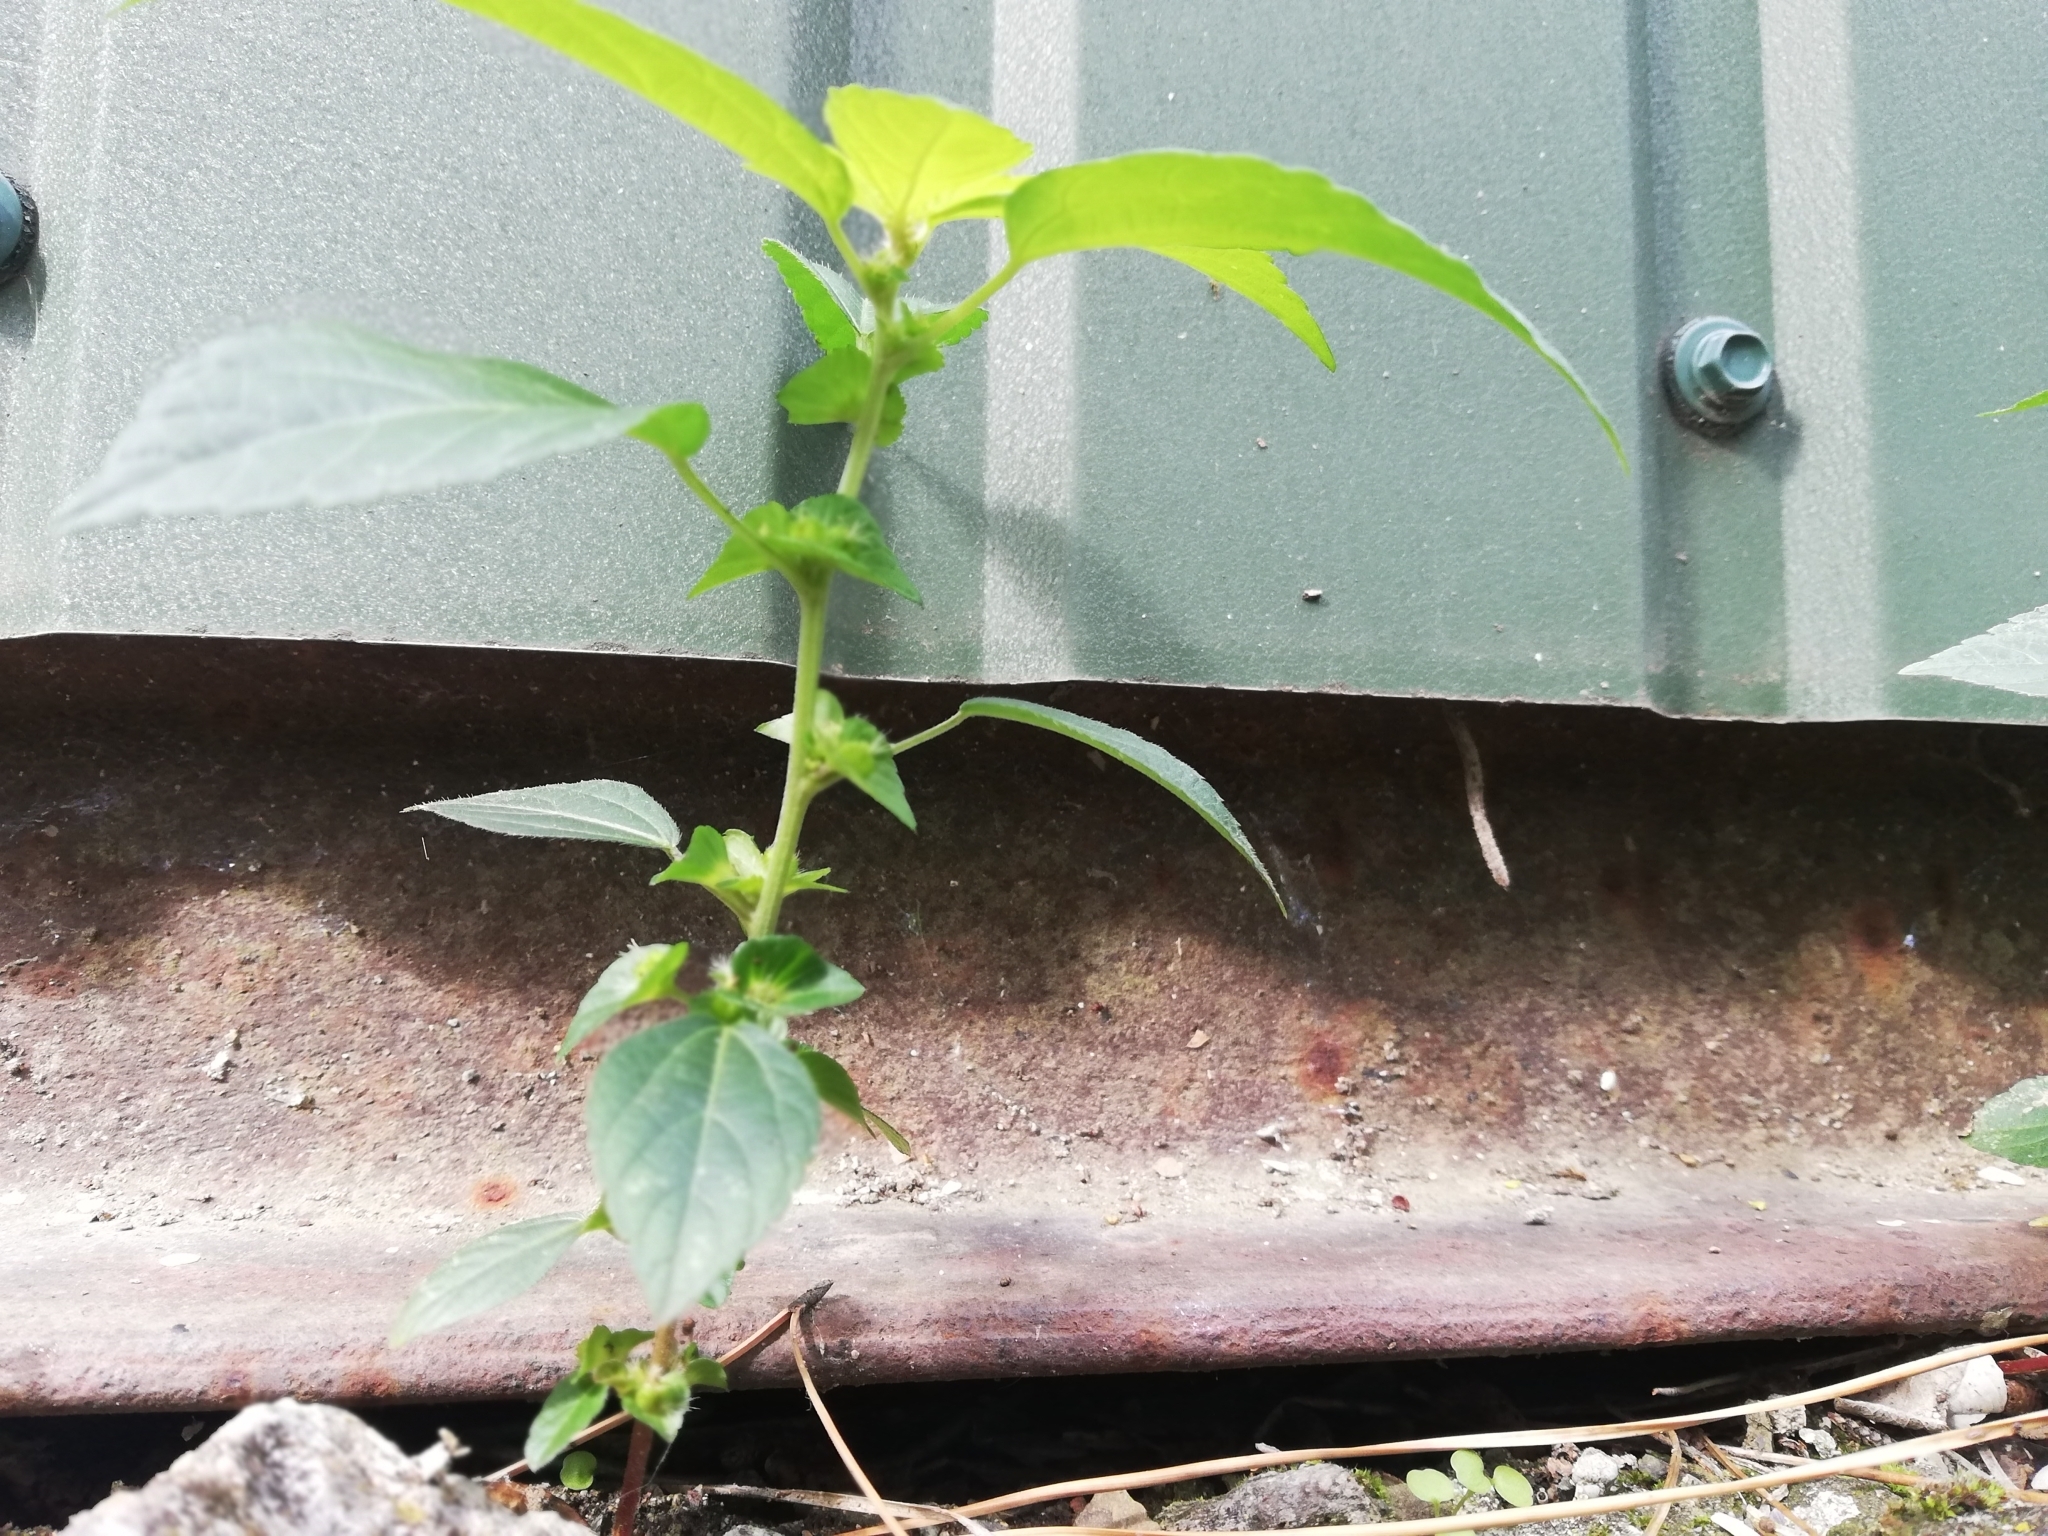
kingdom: Plantae
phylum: Tracheophyta
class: Magnoliopsida
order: Malpighiales
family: Euphorbiaceae
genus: Acalypha
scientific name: Acalypha australis
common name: Asian copperleaf
